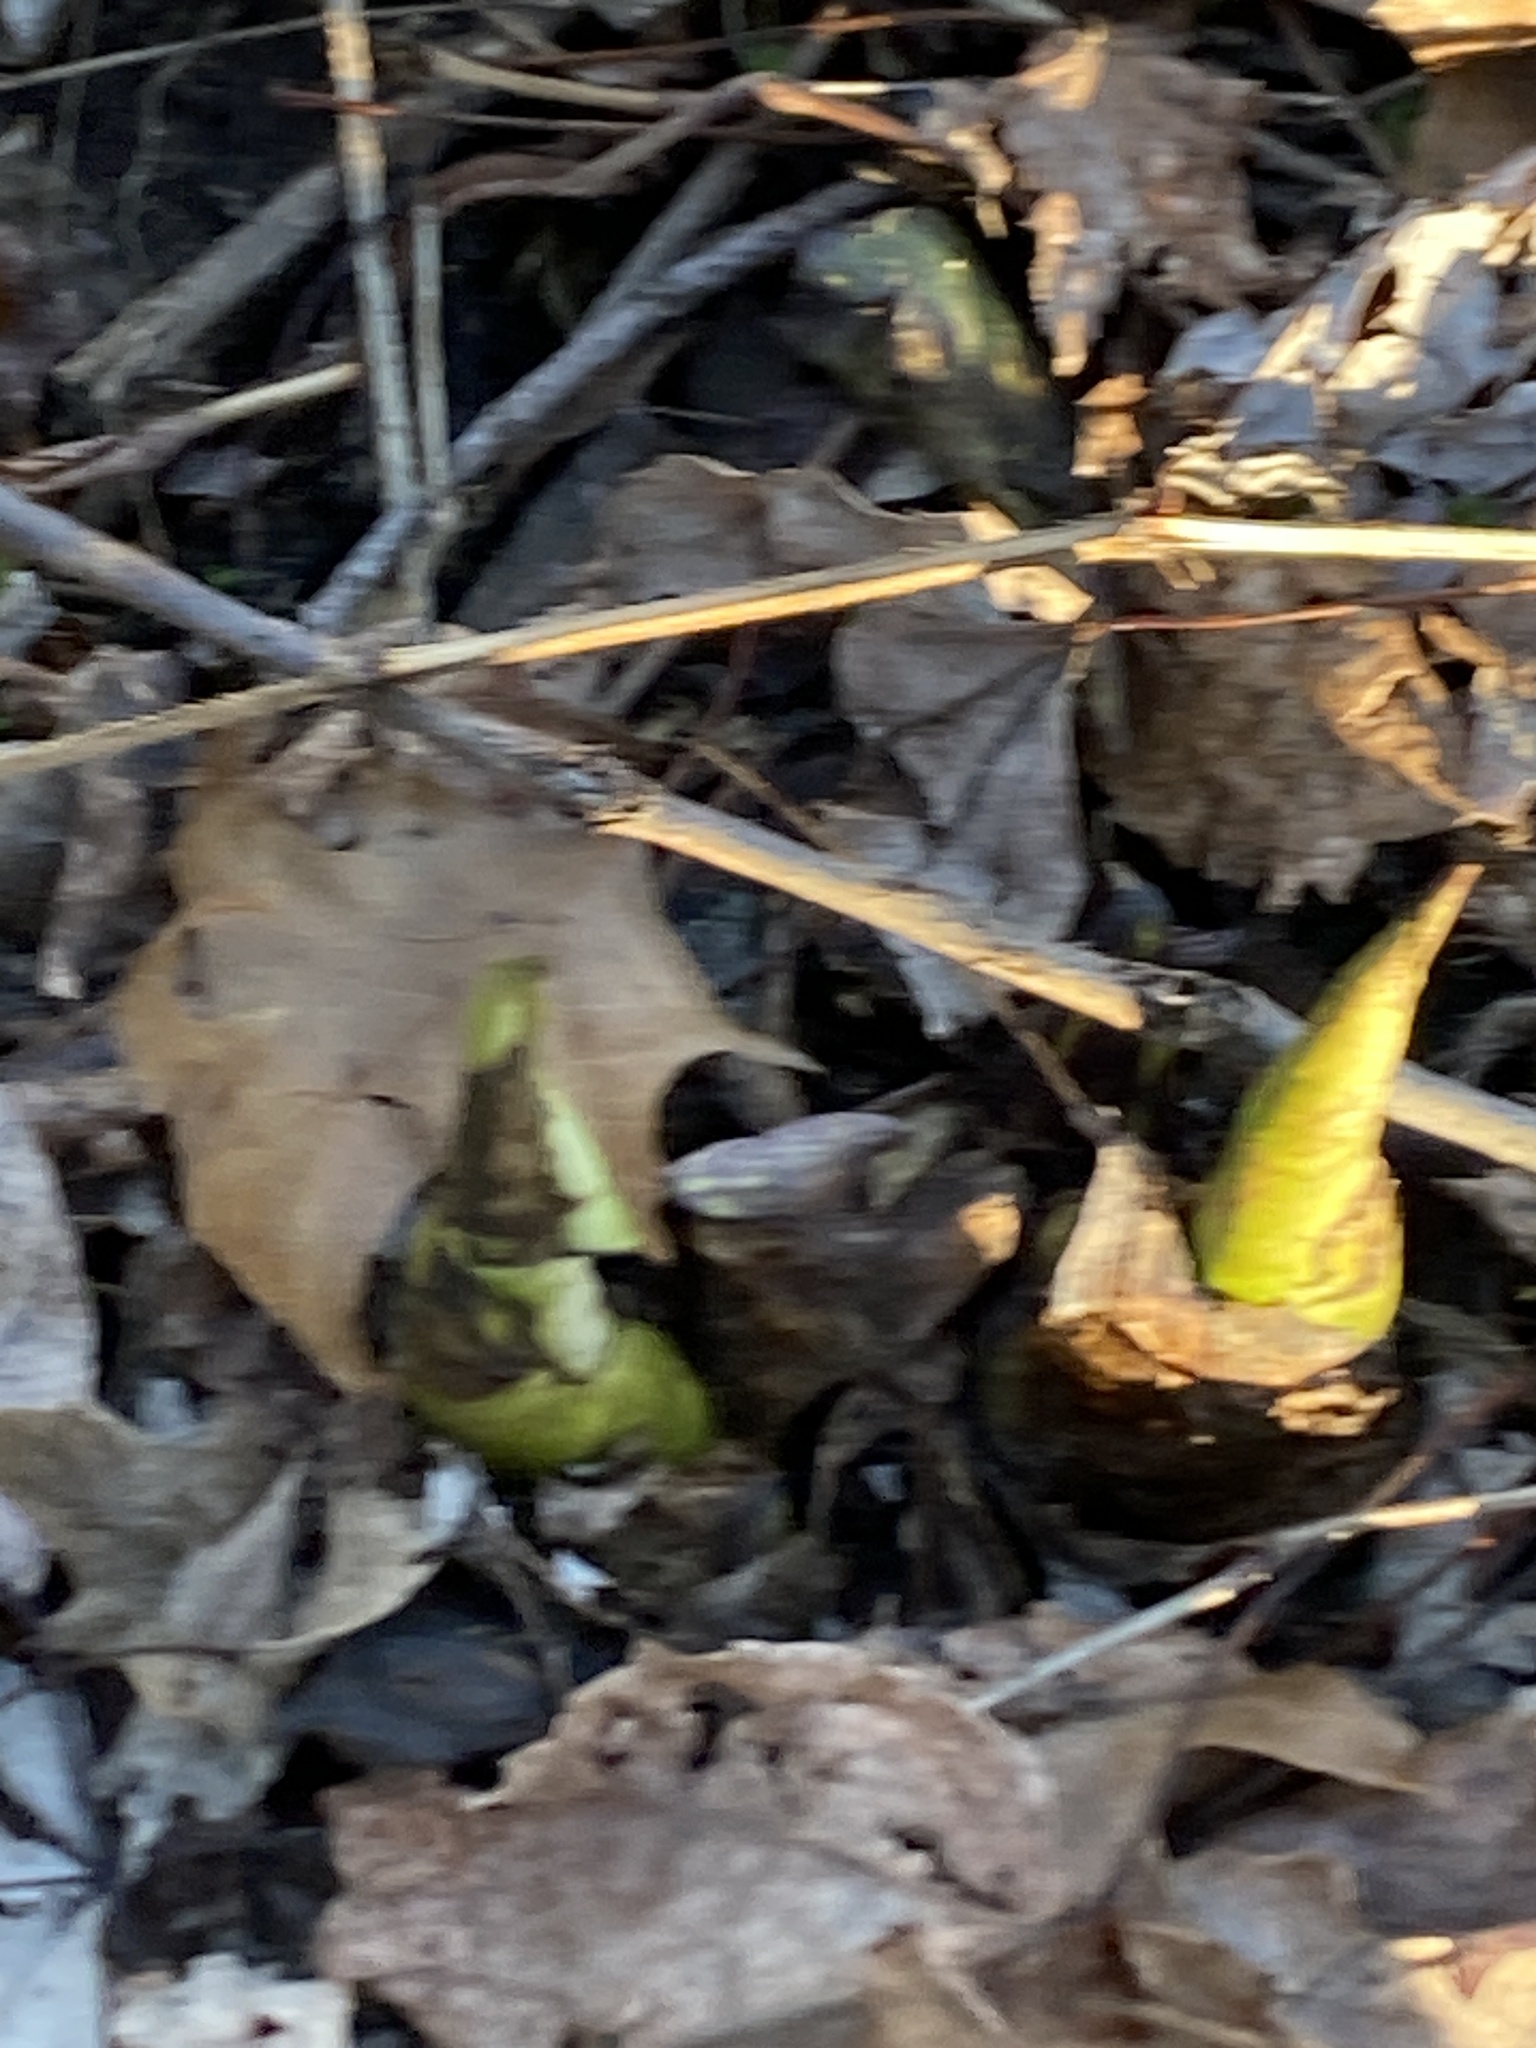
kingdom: Plantae
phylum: Tracheophyta
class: Liliopsida
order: Alismatales
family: Araceae
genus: Symplocarpus
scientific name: Symplocarpus foetidus
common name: Eastern skunk cabbage
